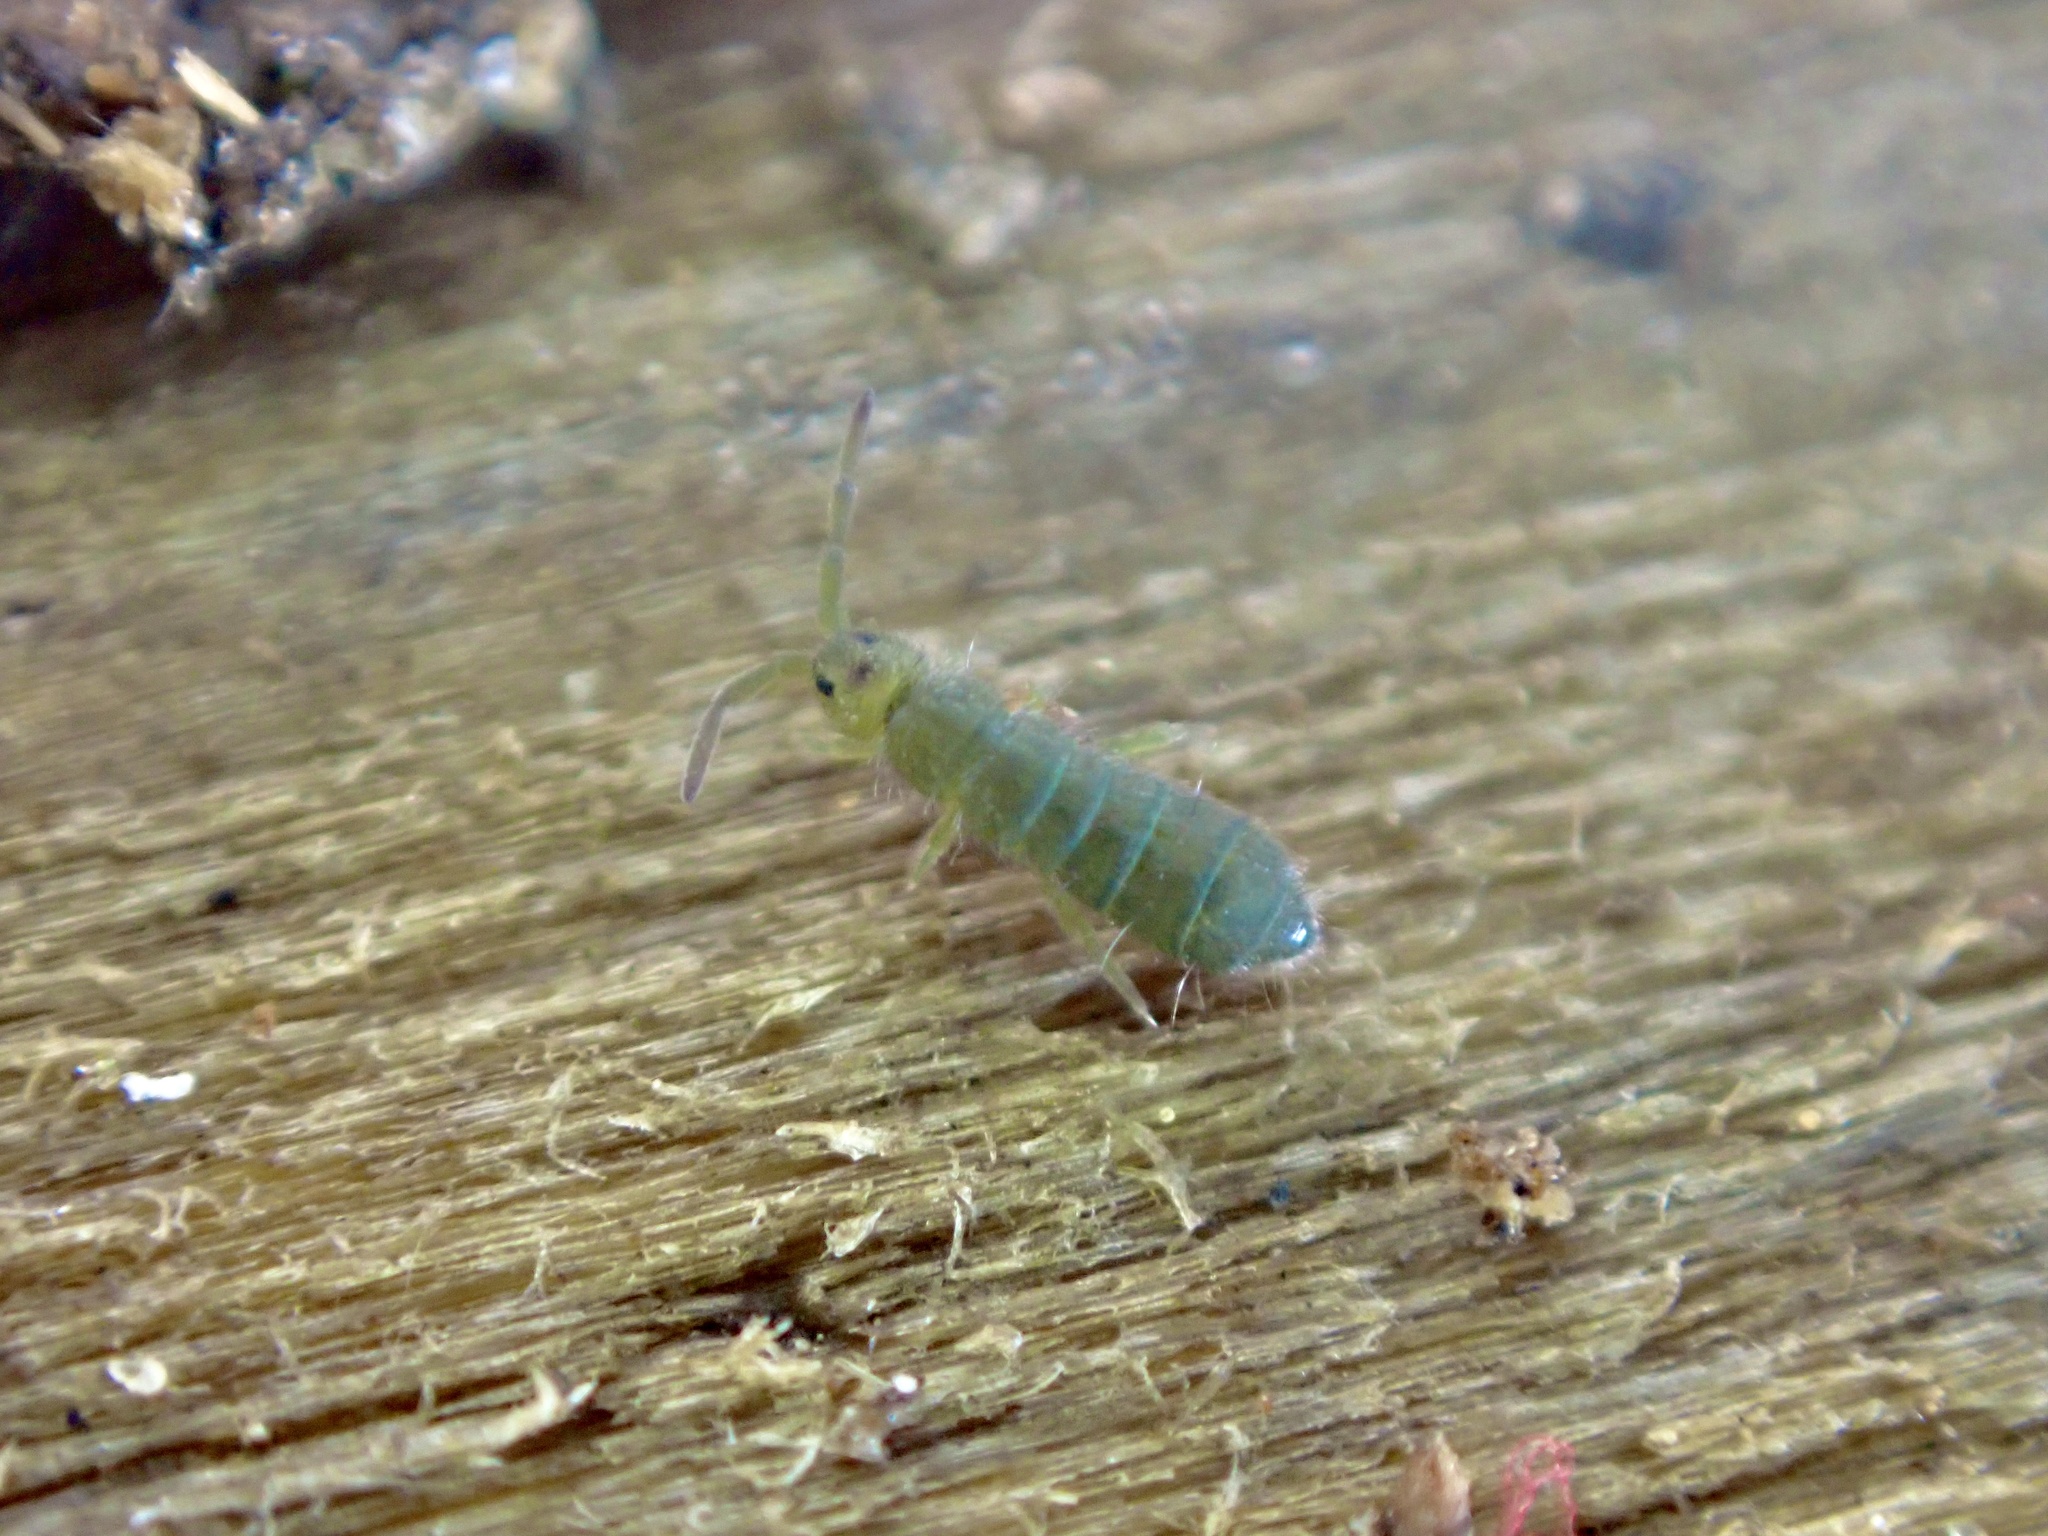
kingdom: Animalia
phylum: Arthropoda
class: Collembola
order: Entomobryomorpha
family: Isotomidae
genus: Isotoma
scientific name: Isotoma viridis
